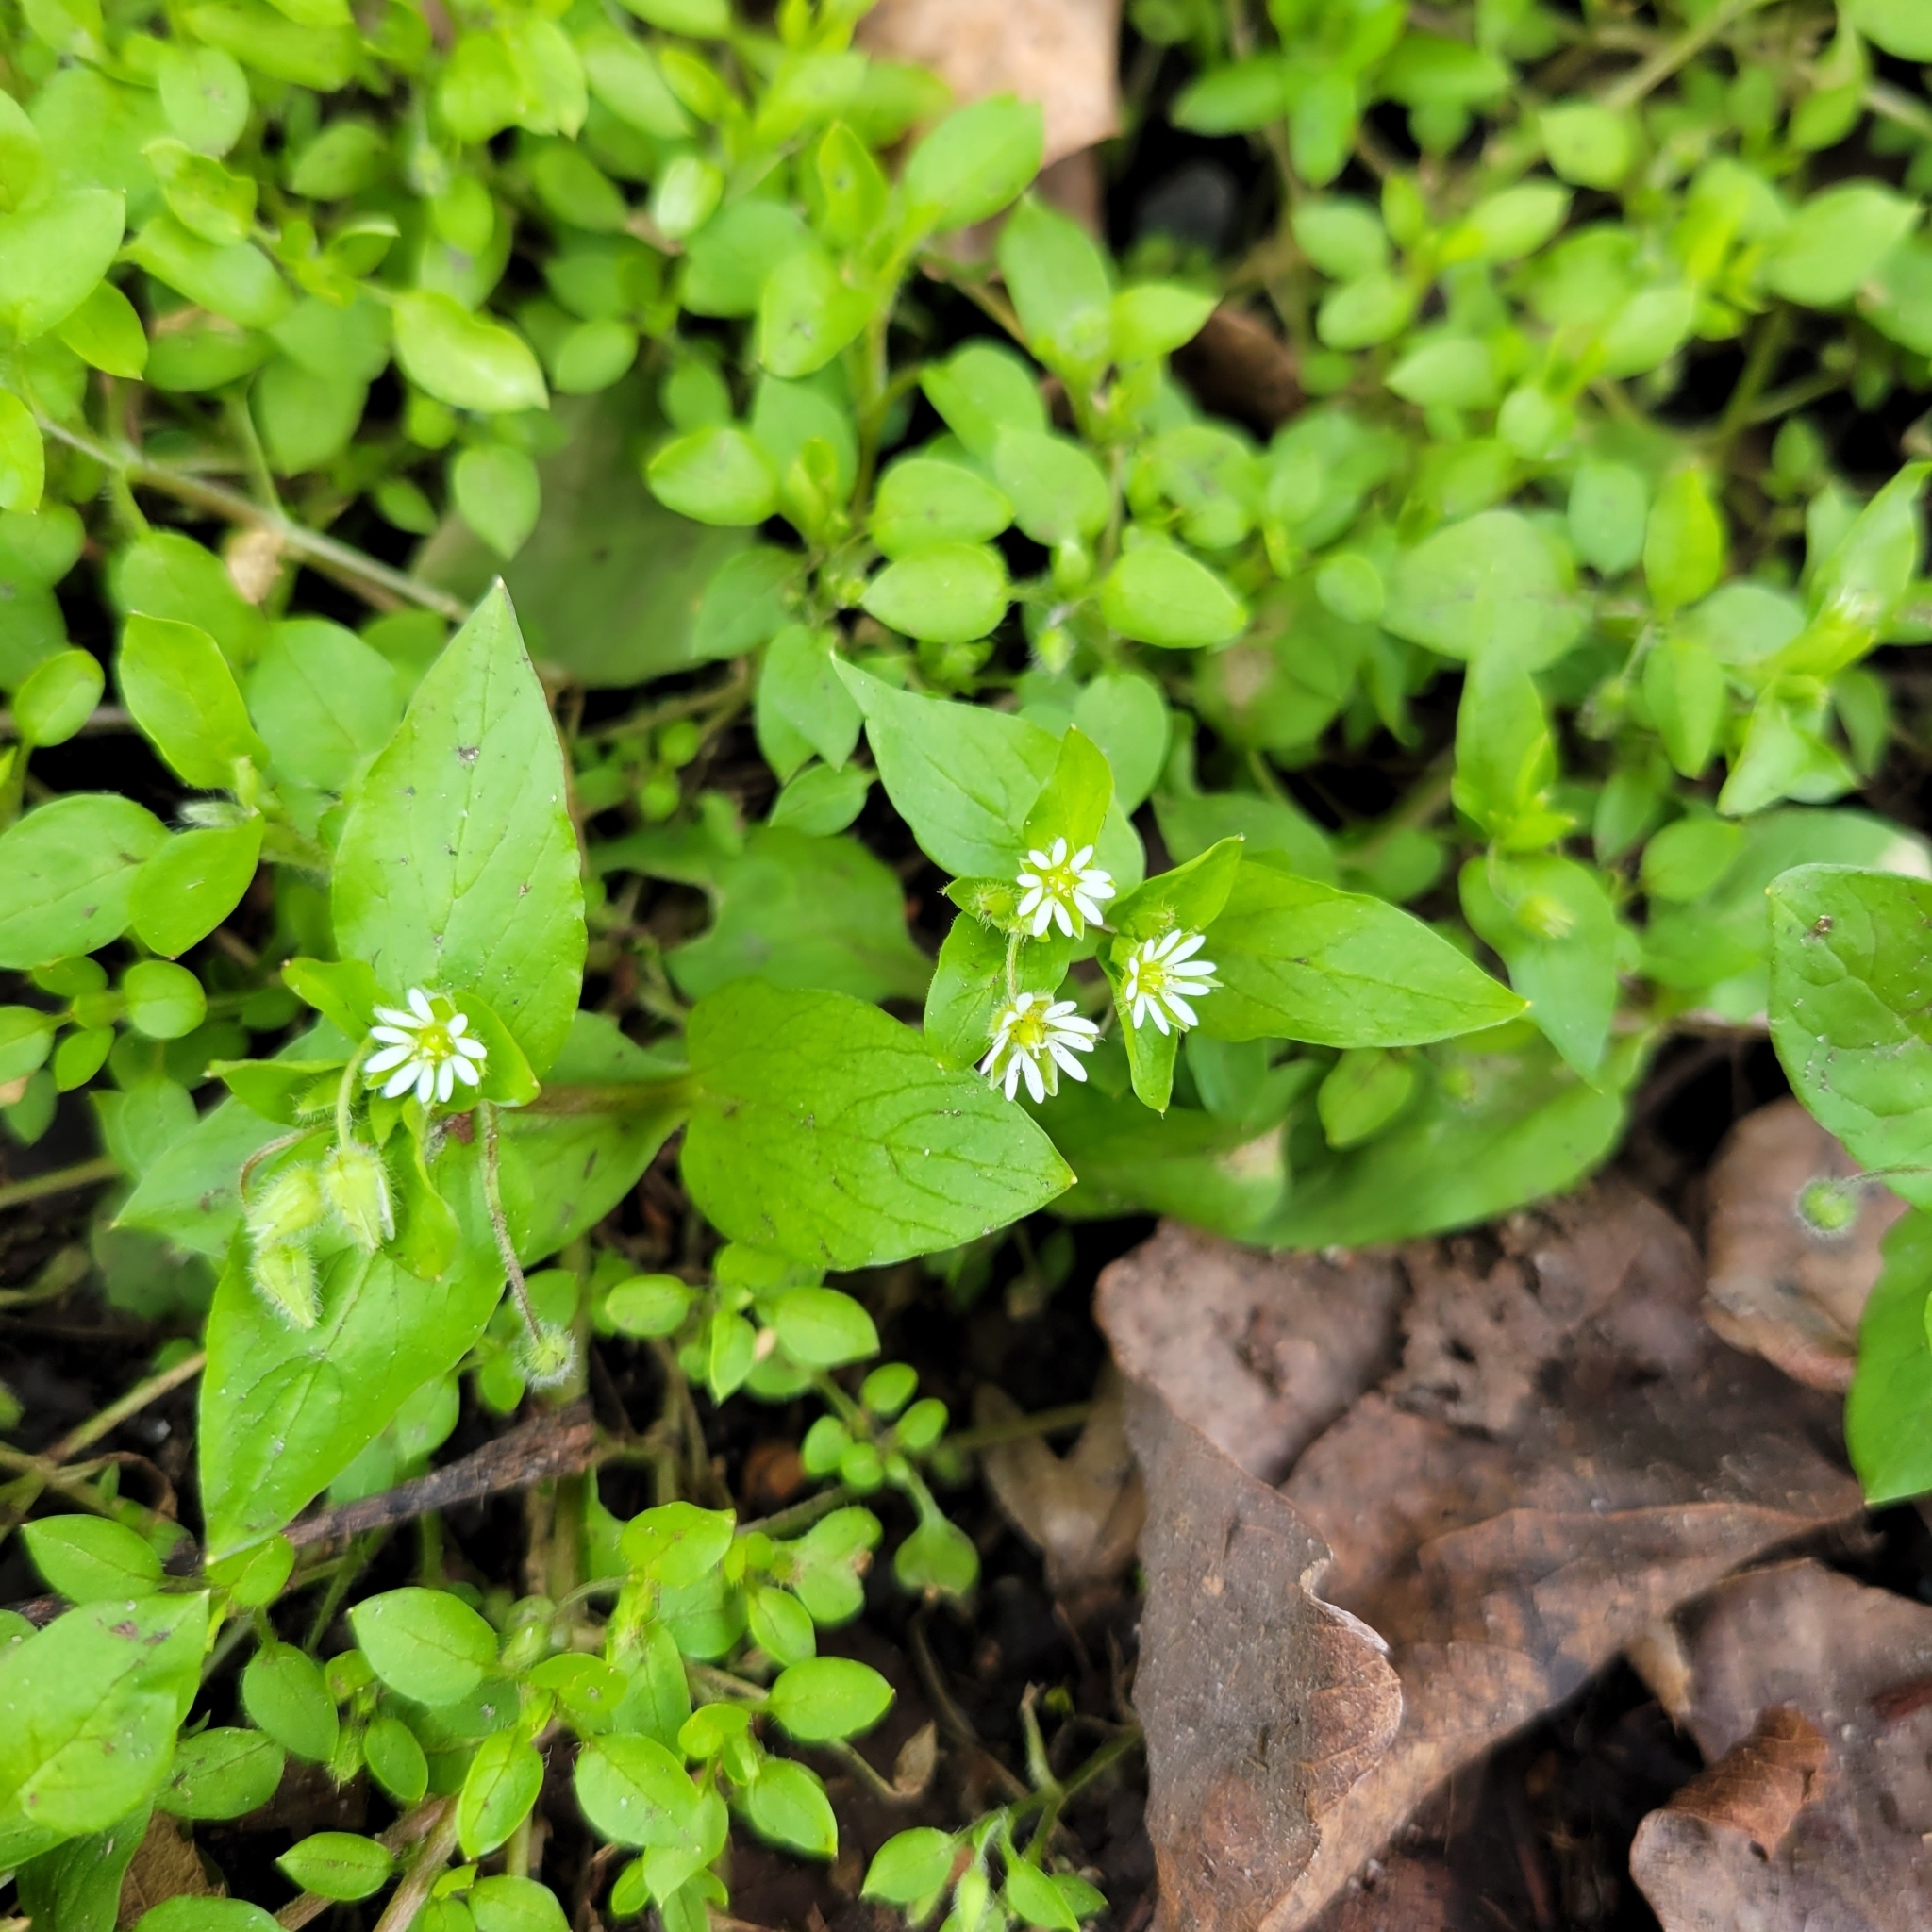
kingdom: Plantae
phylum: Tracheophyta
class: Magnoliopsida
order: Caryophyllales
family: Caryophyllaceae
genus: Stellaria
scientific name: Stellaria media
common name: Common chickweed
